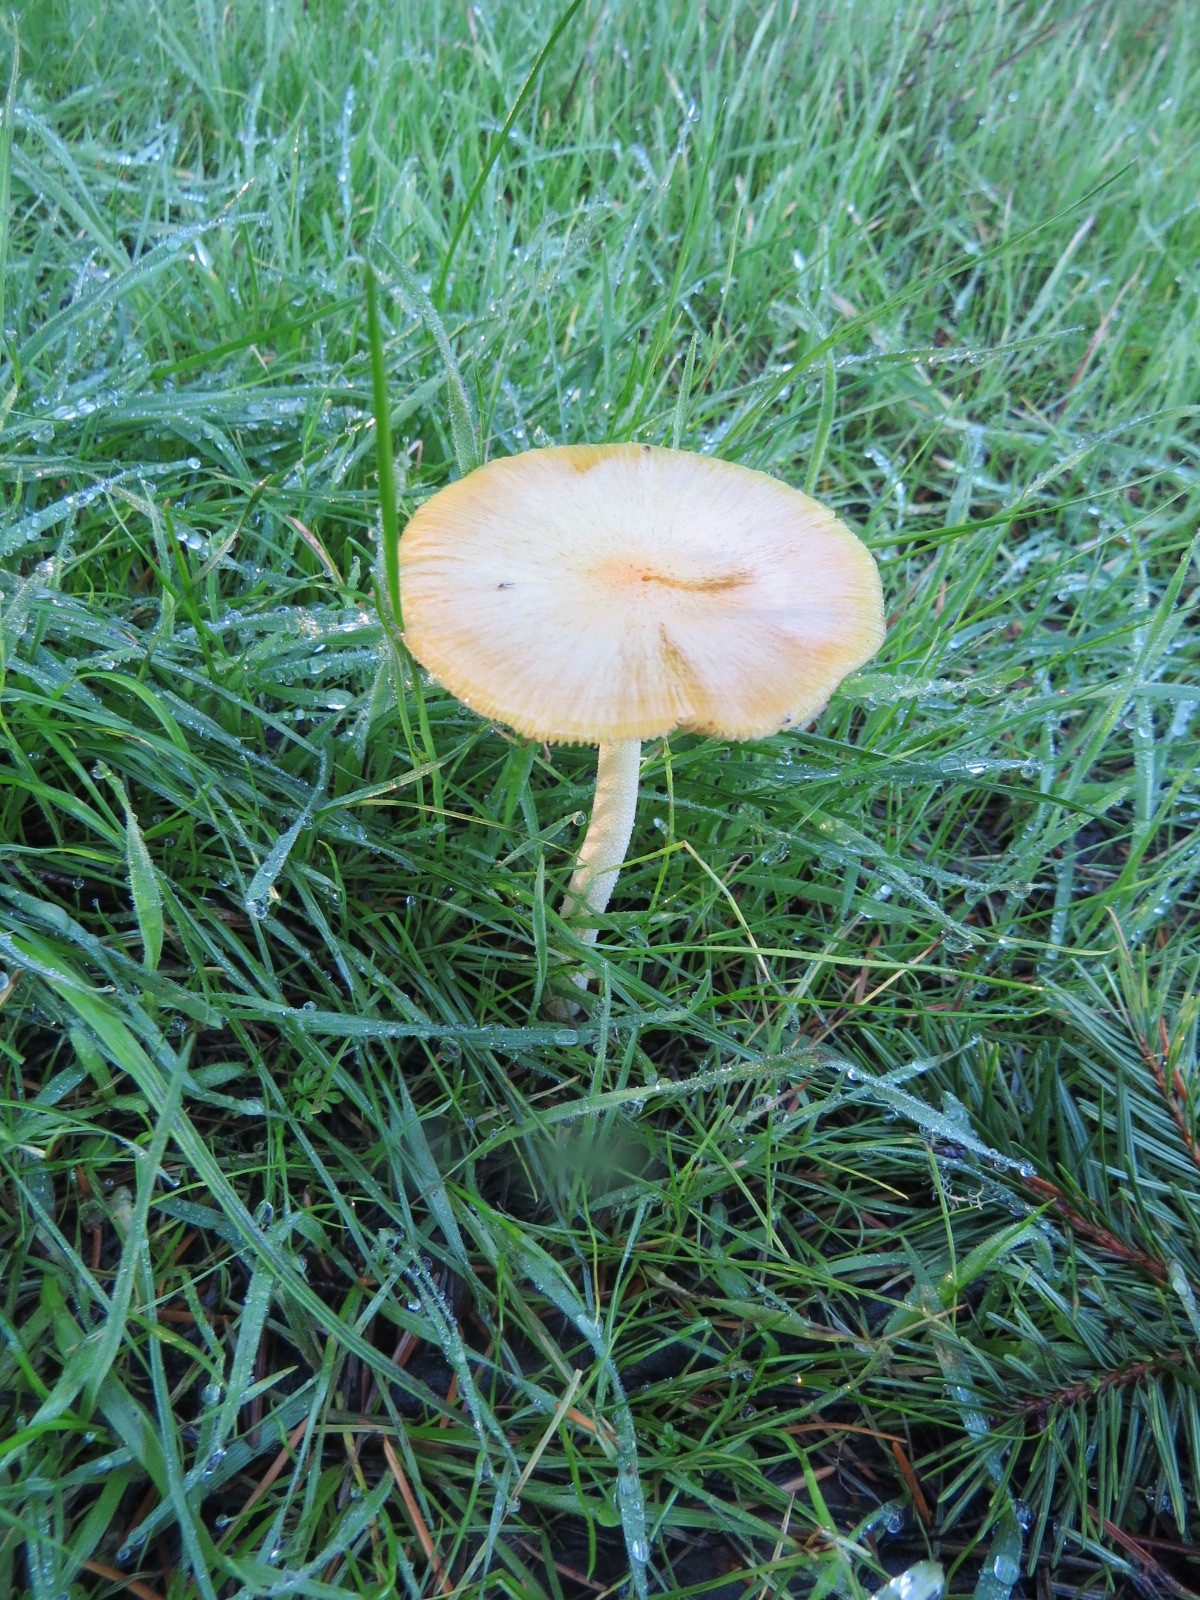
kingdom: Fungi
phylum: Basidiomycota
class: Agaricomycetes
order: Agaricales
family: Bolbitiaceae
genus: Bolbitius
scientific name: Bolbitius titubans
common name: Yellow fieldcap
